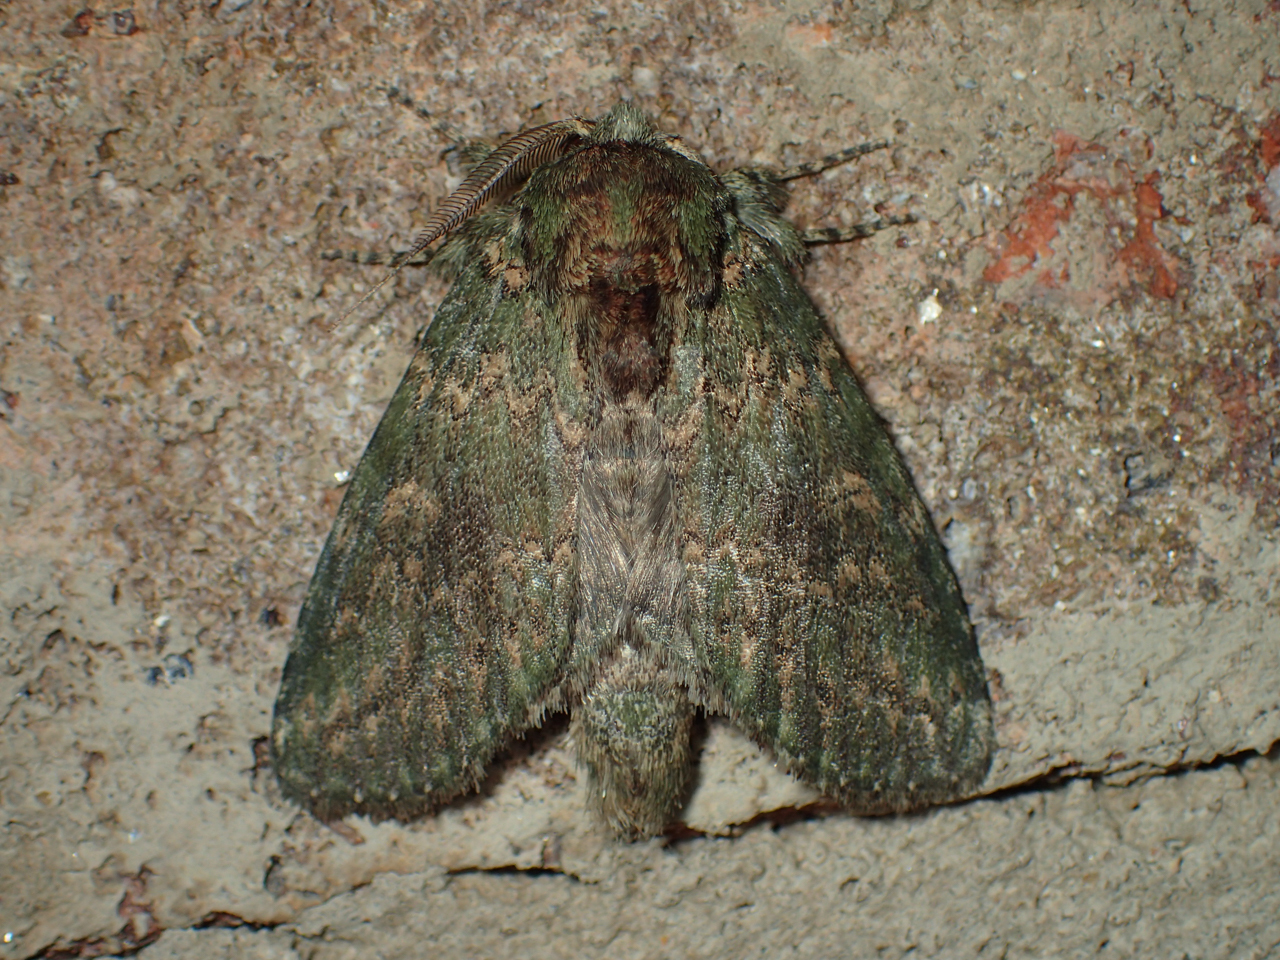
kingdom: Animalia
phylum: Arthropoda
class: Insecta
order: Lepidoptera
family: Notodontidae
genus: Disphragis
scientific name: Disphragis Cecrita biundata
